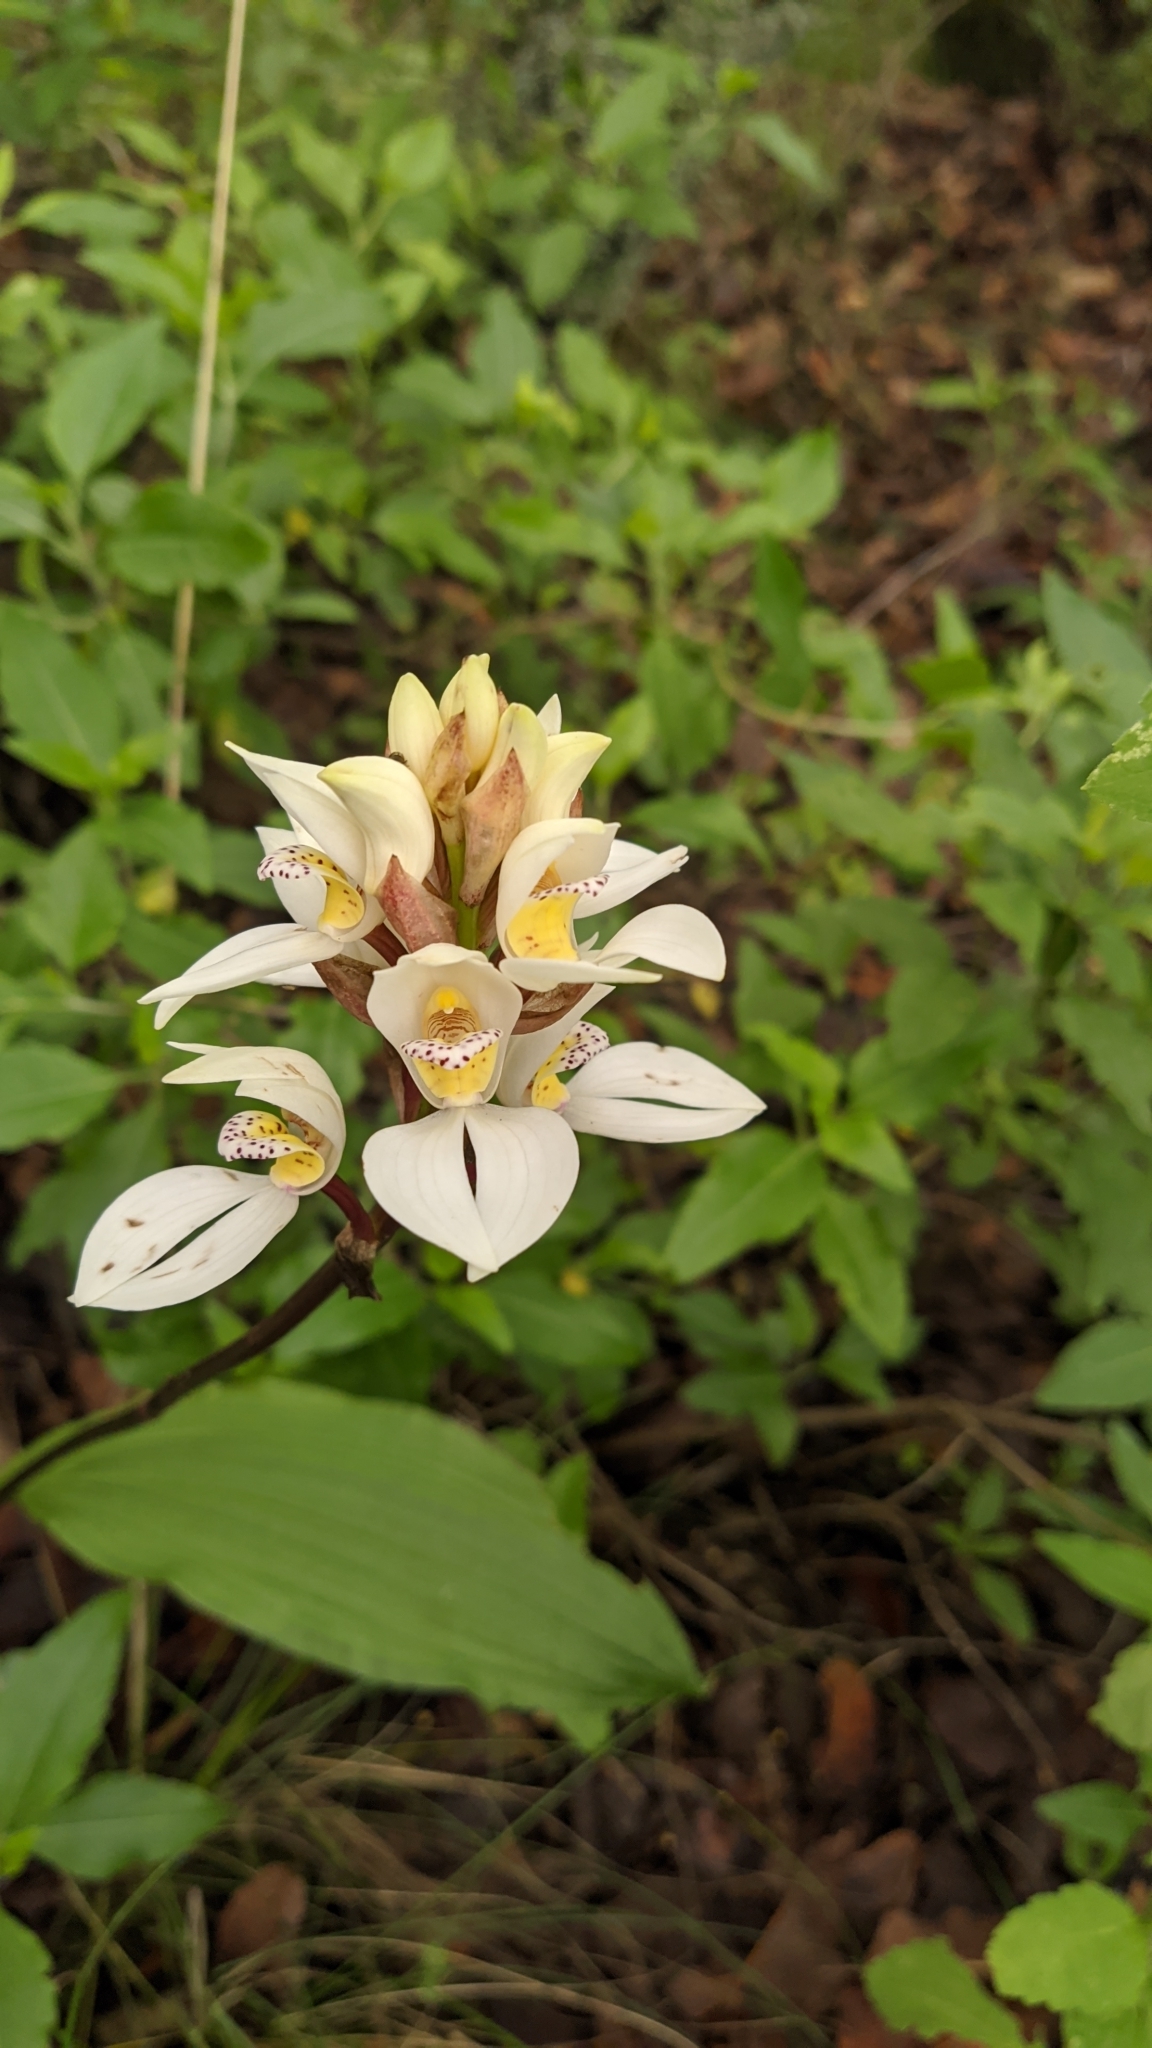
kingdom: Plantae
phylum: Tracheophyta
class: Liliopsida
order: Asparagales
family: Orchidaceae
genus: Govenia
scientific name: Govenia utriculata
